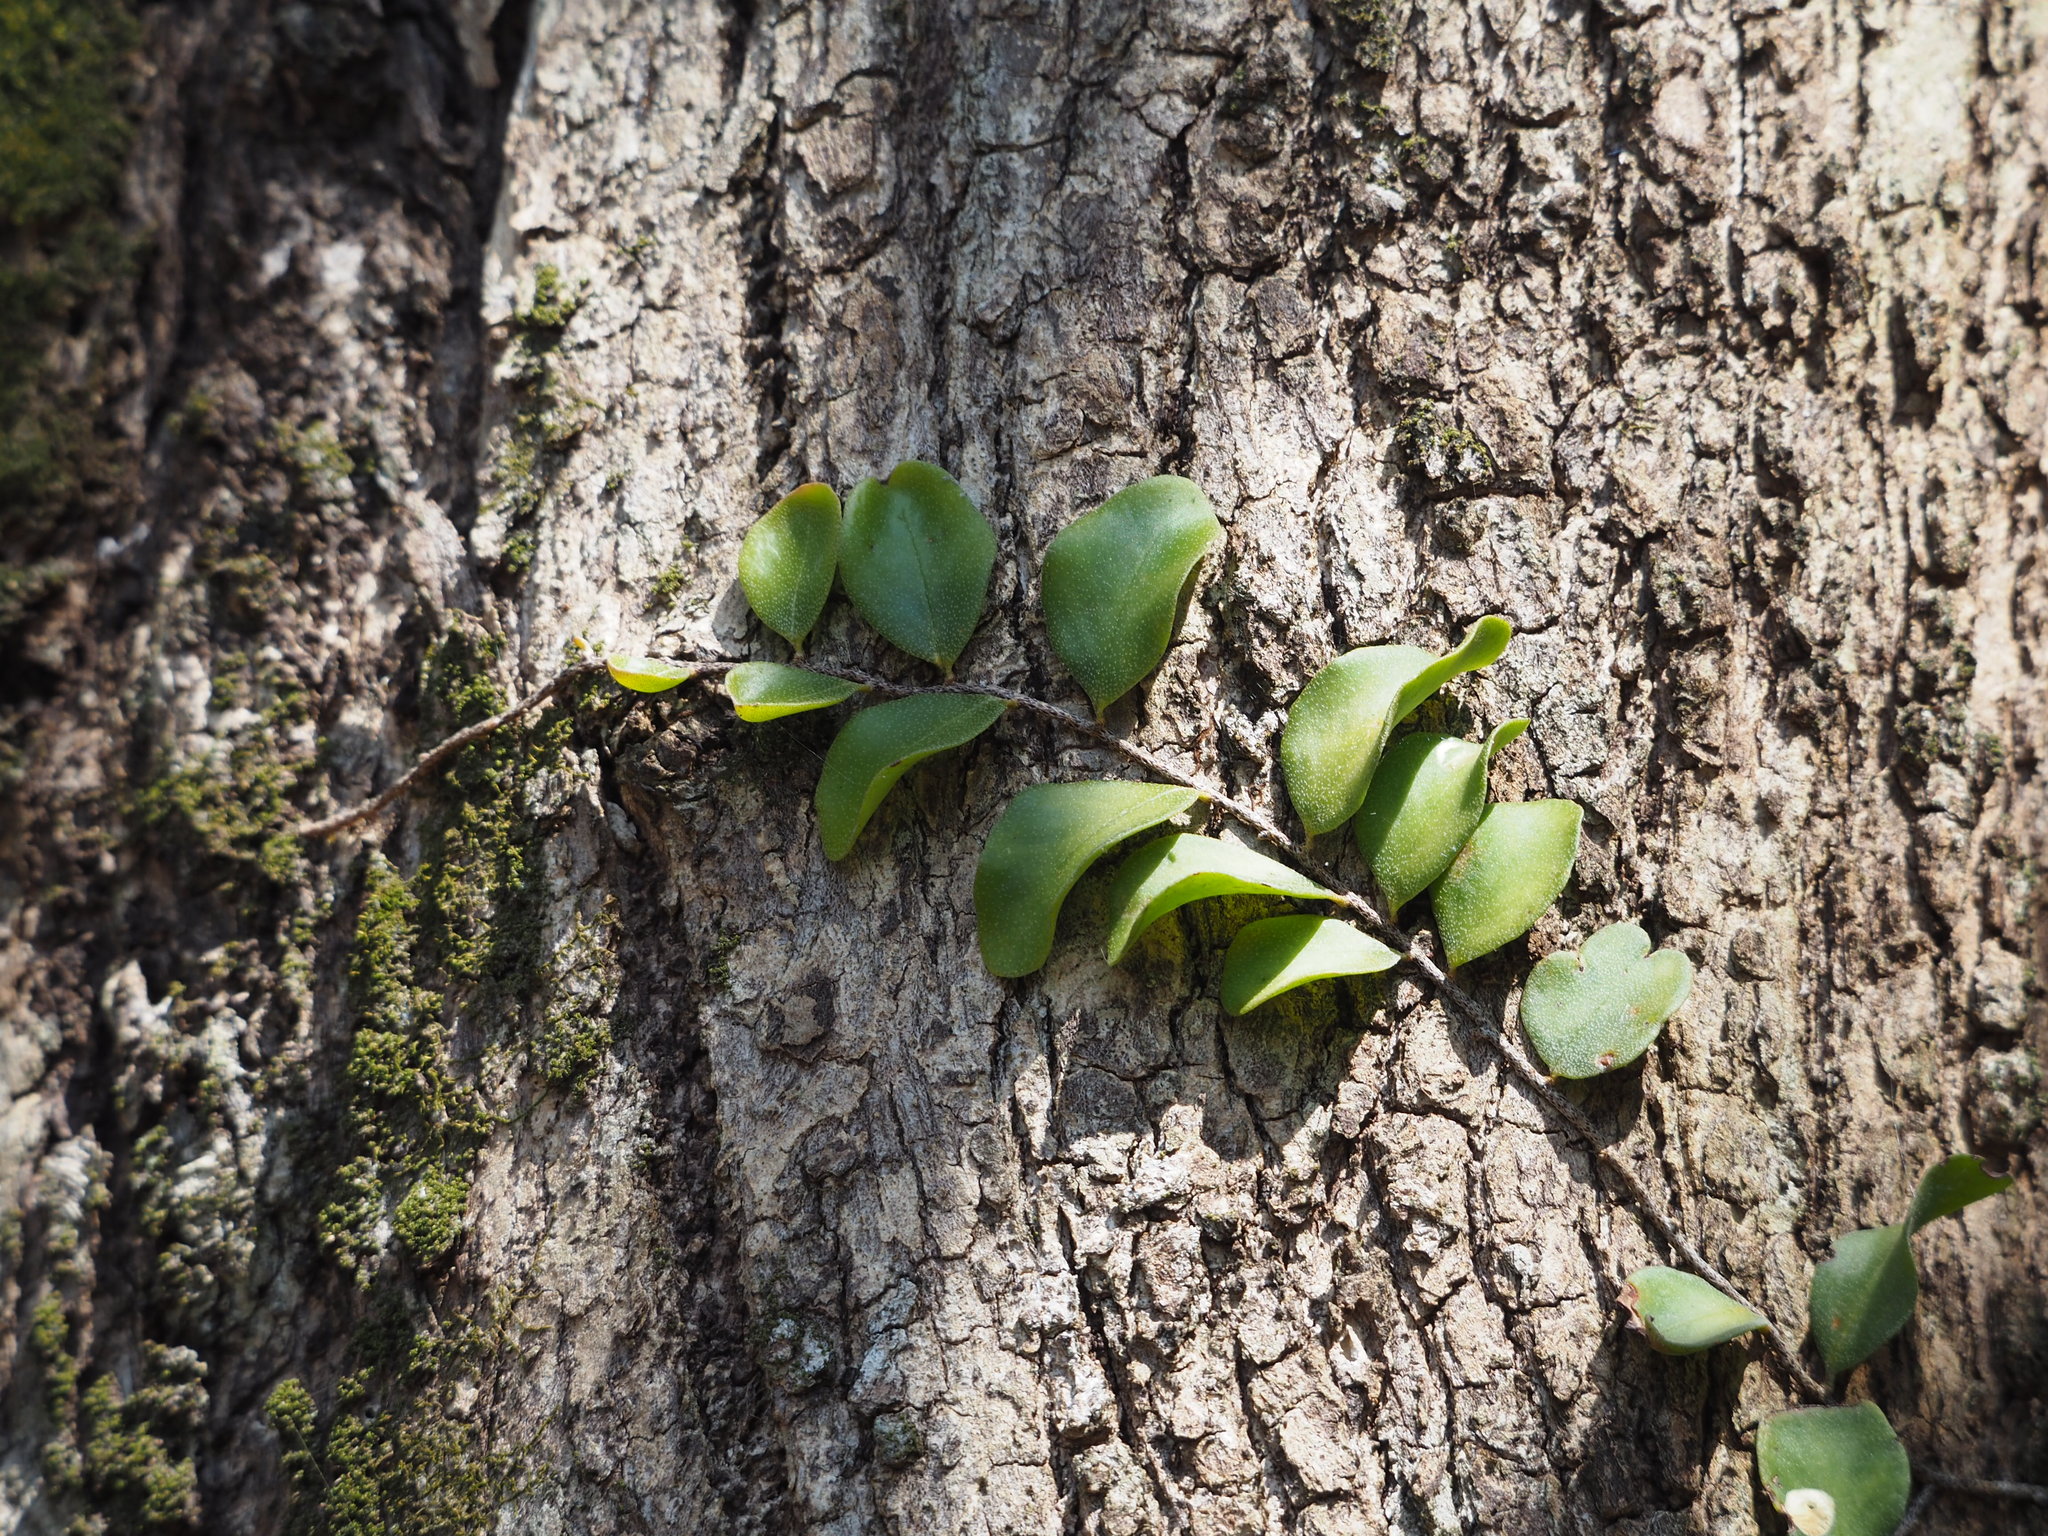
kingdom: Plantae
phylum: Tracheophyta
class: Polypodiopsida
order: Polypodiales
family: Polypodiaceae
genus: Pyrrosia
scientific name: Pyrrosia lanceolata
